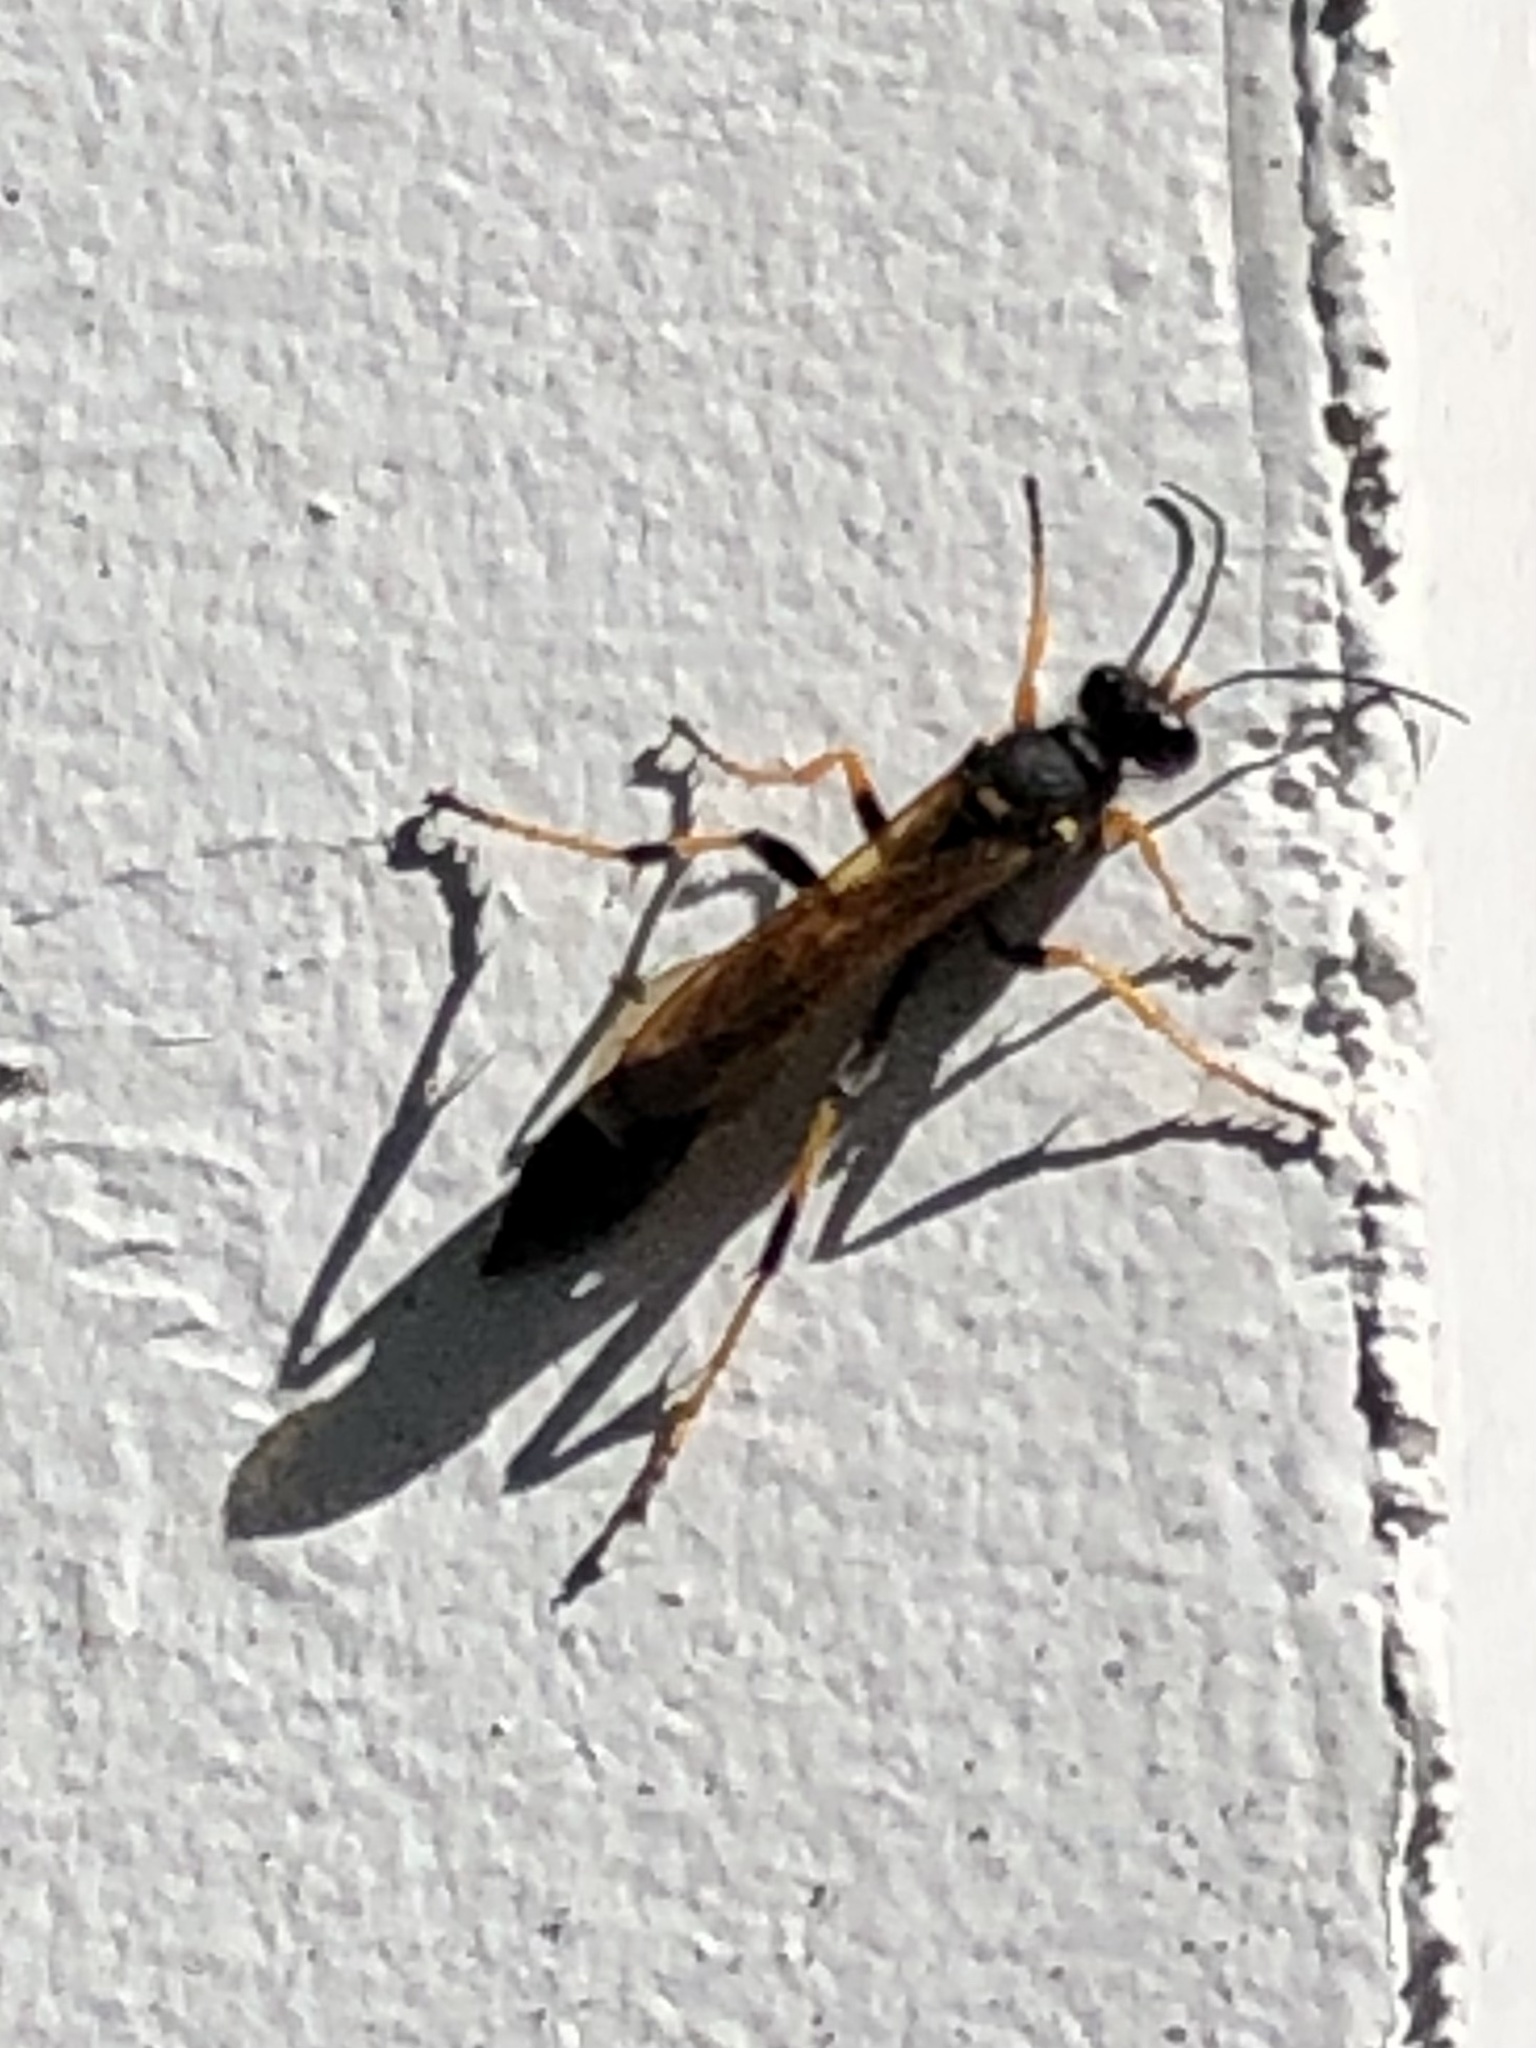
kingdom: Animalia
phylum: Arthropoda
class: Insecta
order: Hymenoptera
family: Sphecidae
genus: Sceliphron
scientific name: Sceliphron caementarium
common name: Mud dauber
